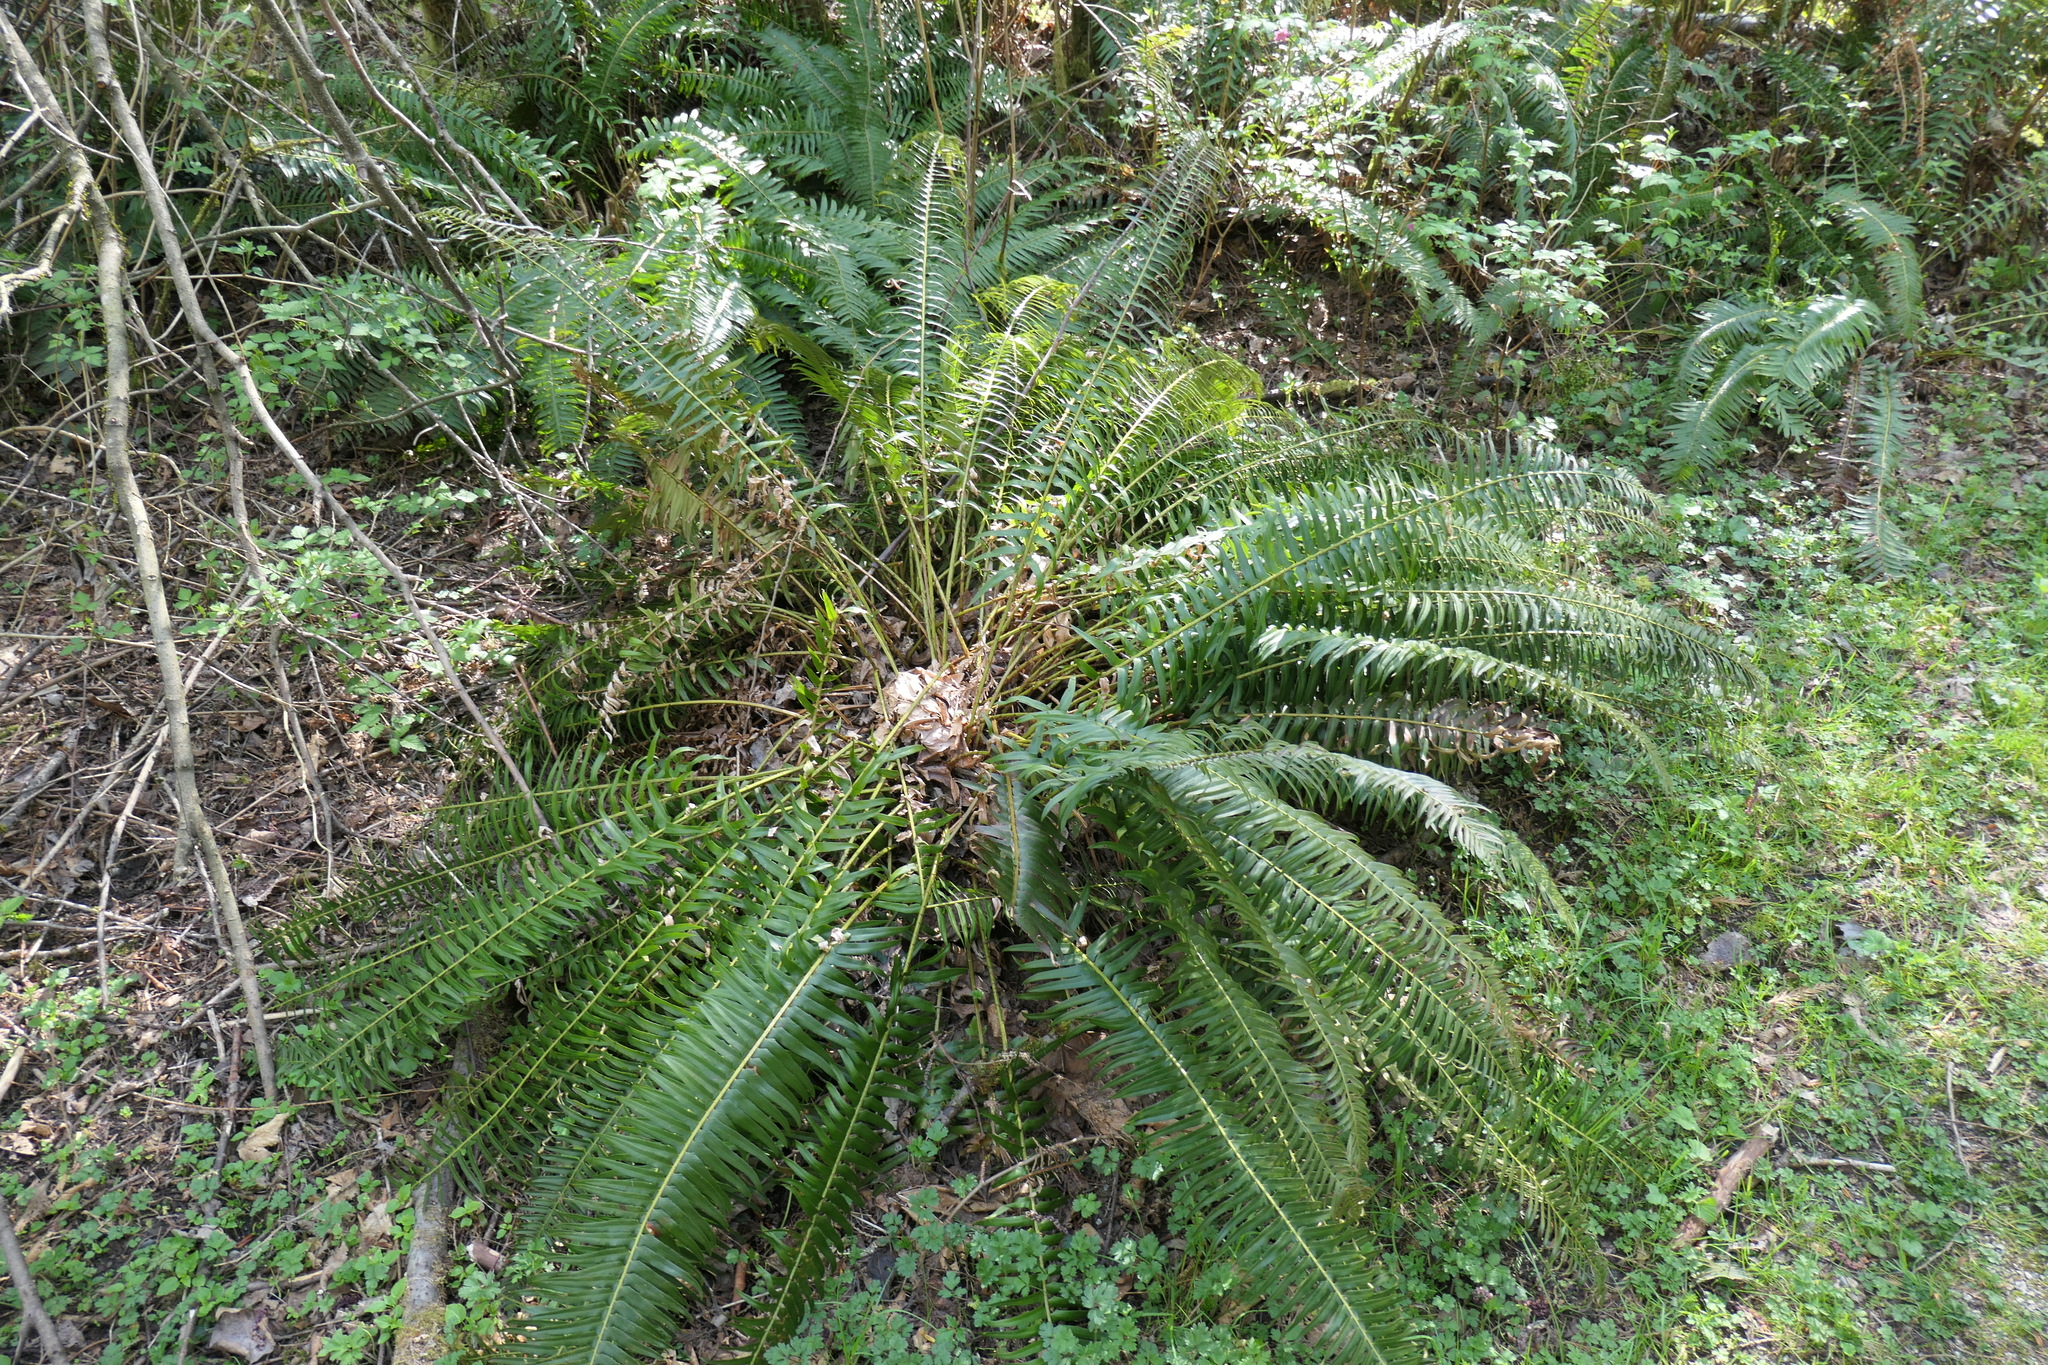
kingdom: Plantae
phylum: Tracheophyta
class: Polypodiopsida
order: Polypodiales
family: Dryopteridaceae
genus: Polystichum
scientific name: Polystichum munitum
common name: Western sword-fern
